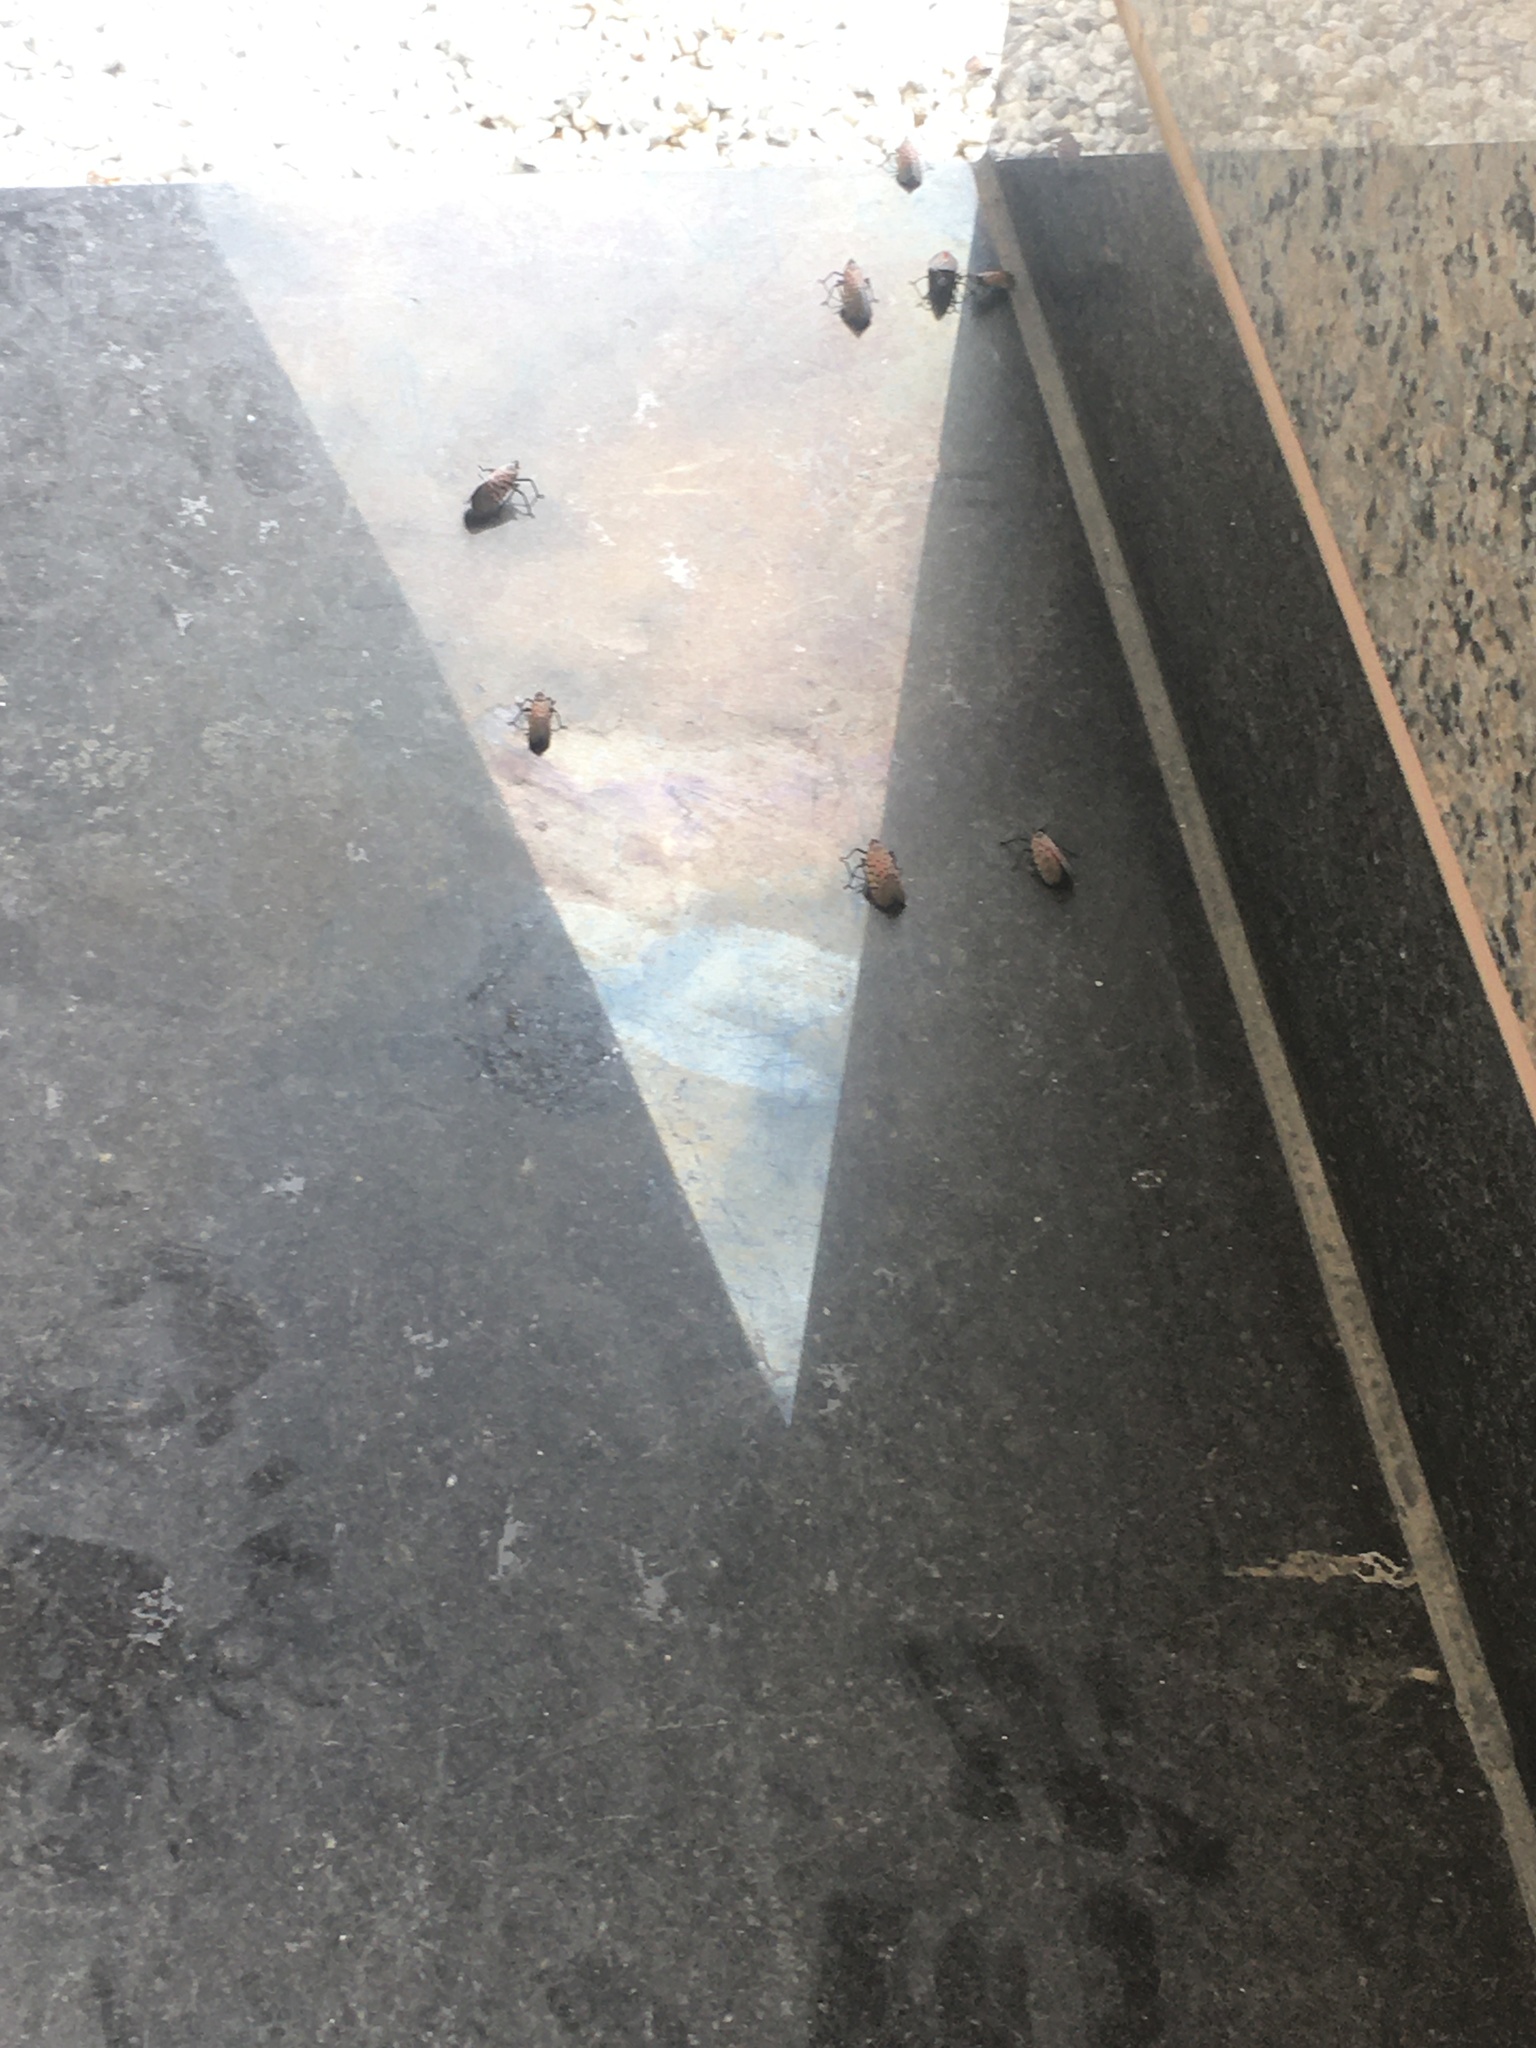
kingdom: Animalia
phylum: Arthropoda
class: Insecta
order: Hemiptera
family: Fulgoridae
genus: Lycorma
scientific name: Lycorma delicatula
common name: Spotted lanternfly
